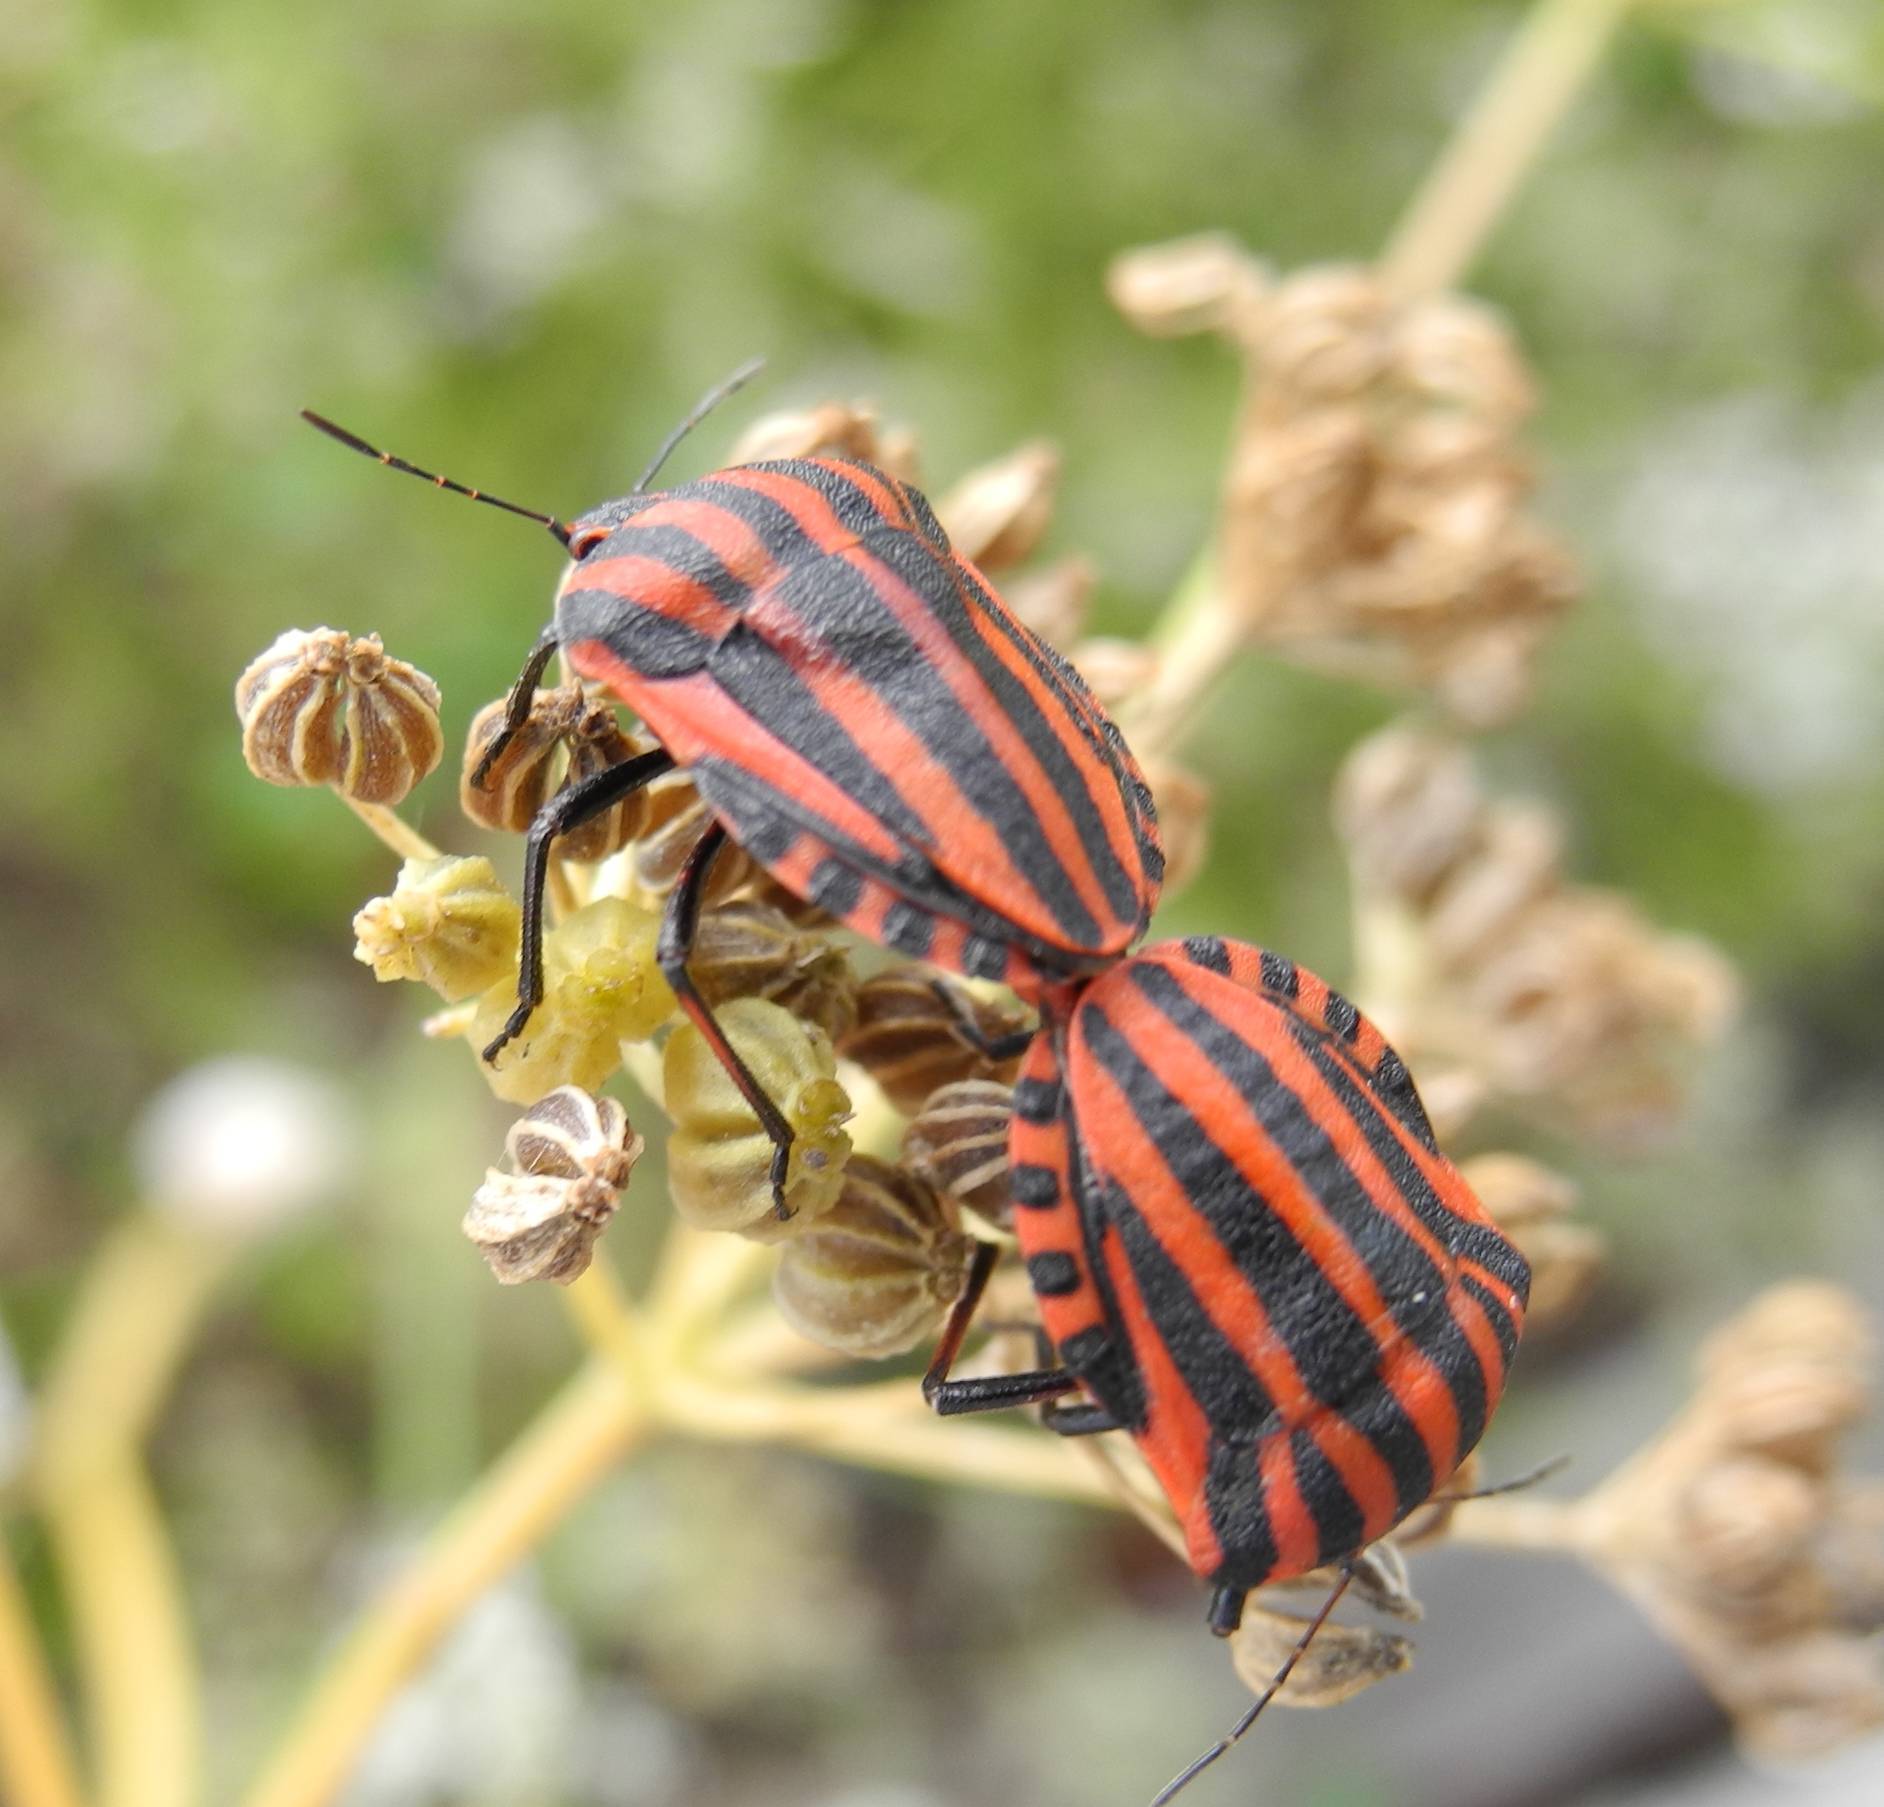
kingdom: Animalia
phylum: Arthropoda
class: Insecta
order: Hemiptera
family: Pentatomidae
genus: Graphosoma
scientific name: Graphosoma italicum
